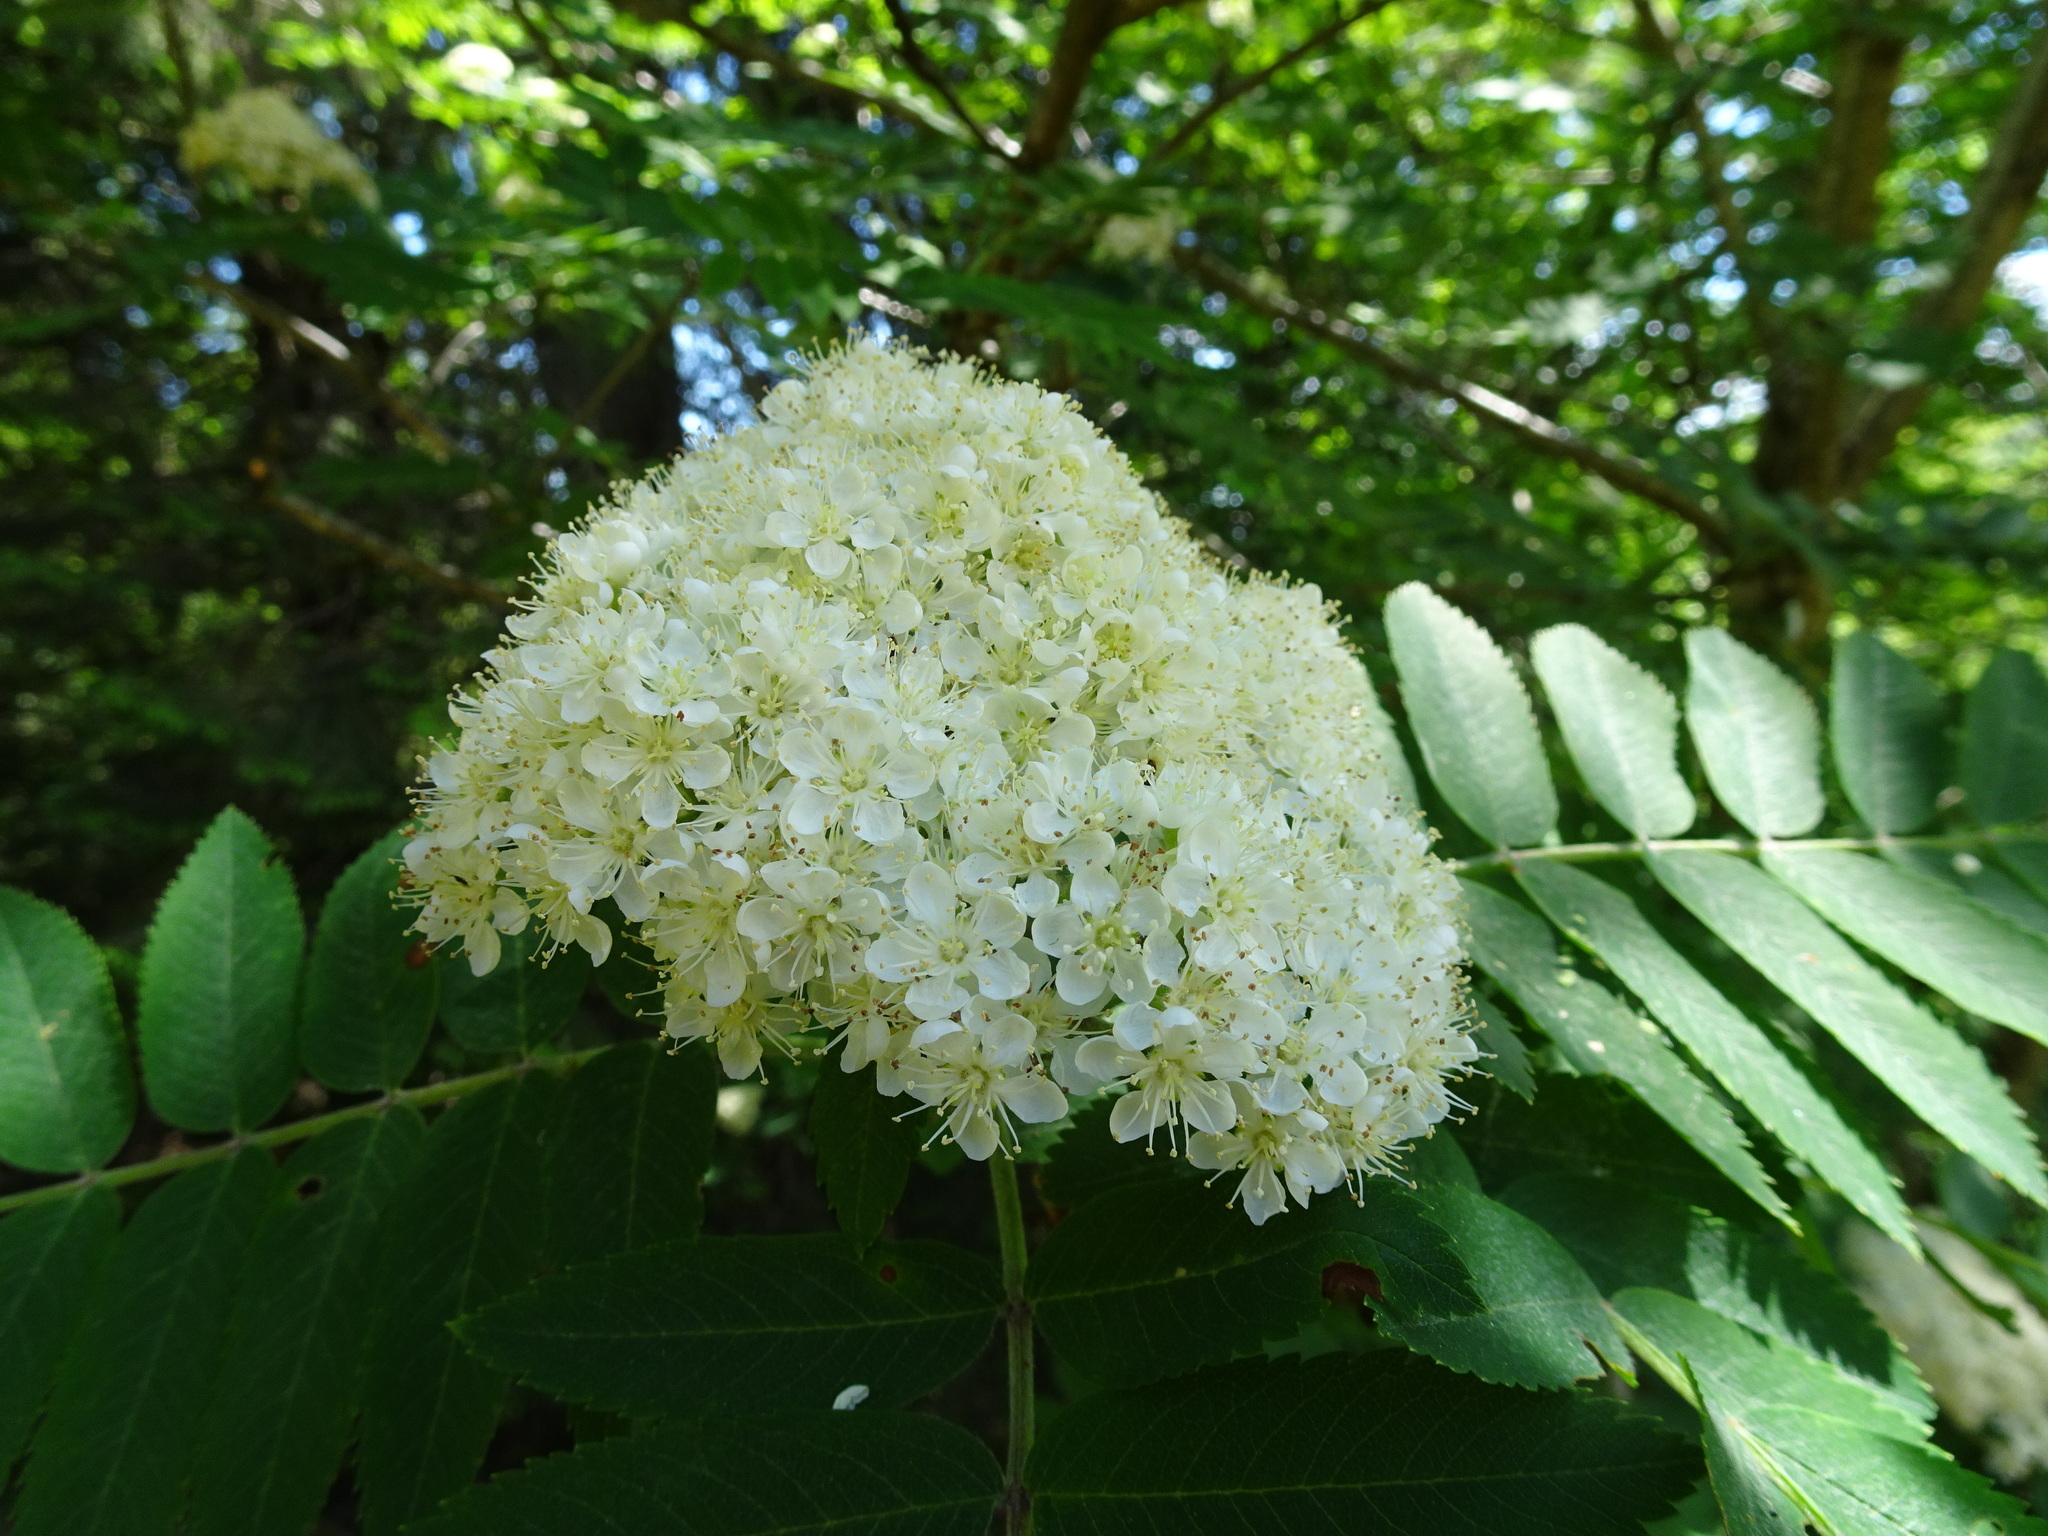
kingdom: Plantae
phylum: Tracheophyta
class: Magnoliopsida
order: Rosales
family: Rosaceae
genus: Sorbus
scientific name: Sorbus aucuparia
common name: Rowan
